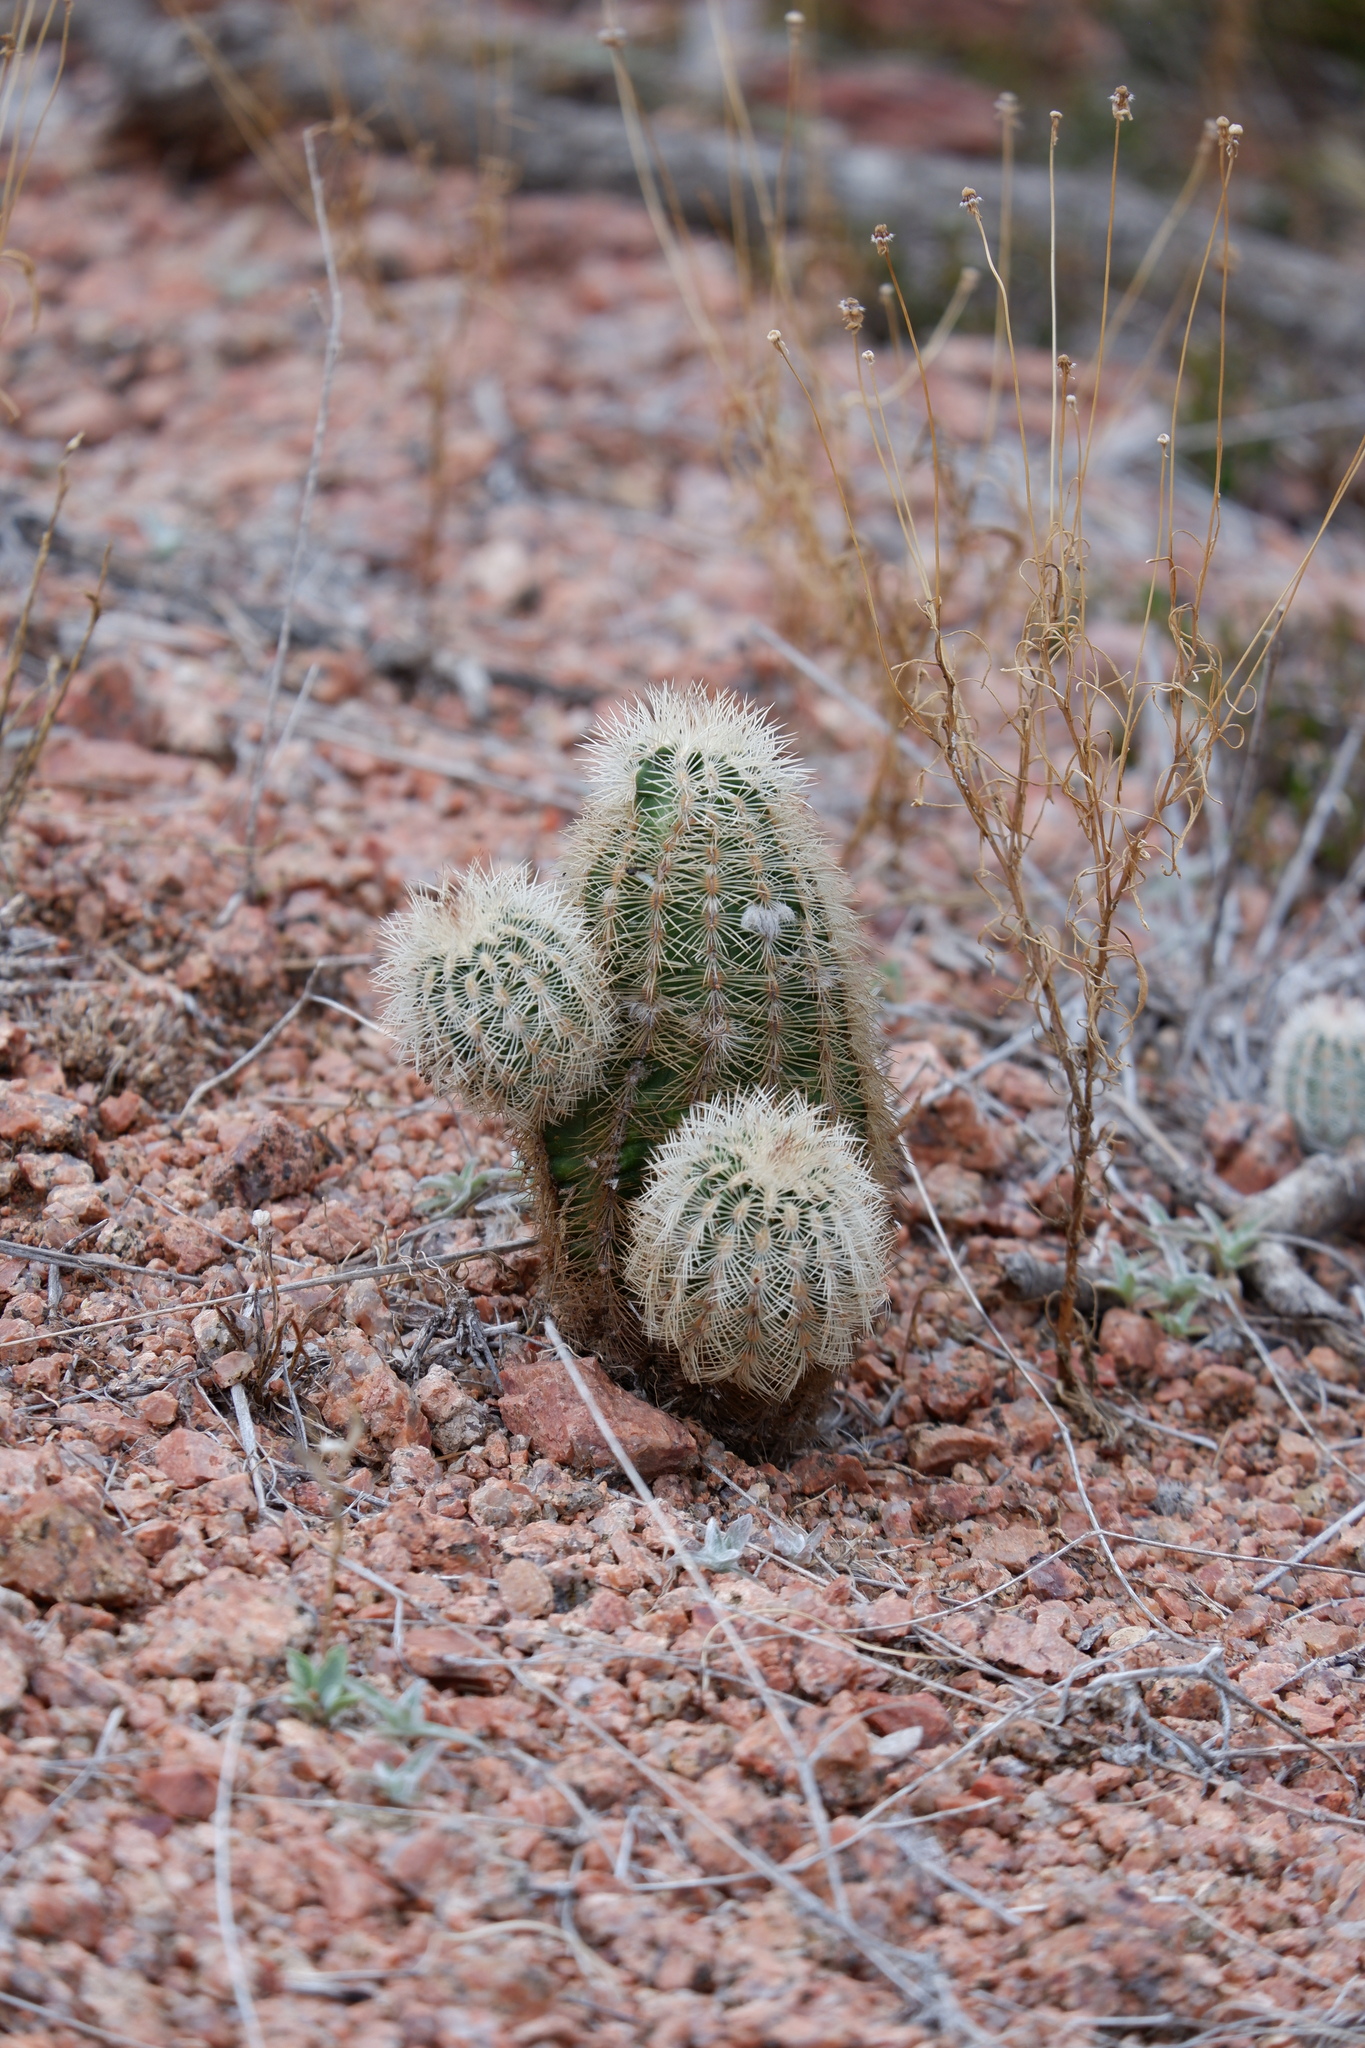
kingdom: Plantae
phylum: Tracheophyta
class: Magnoliopsida
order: Caryophyllales
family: Cactaceae
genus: Echinocereus
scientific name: Echinocereus reichenbachii
